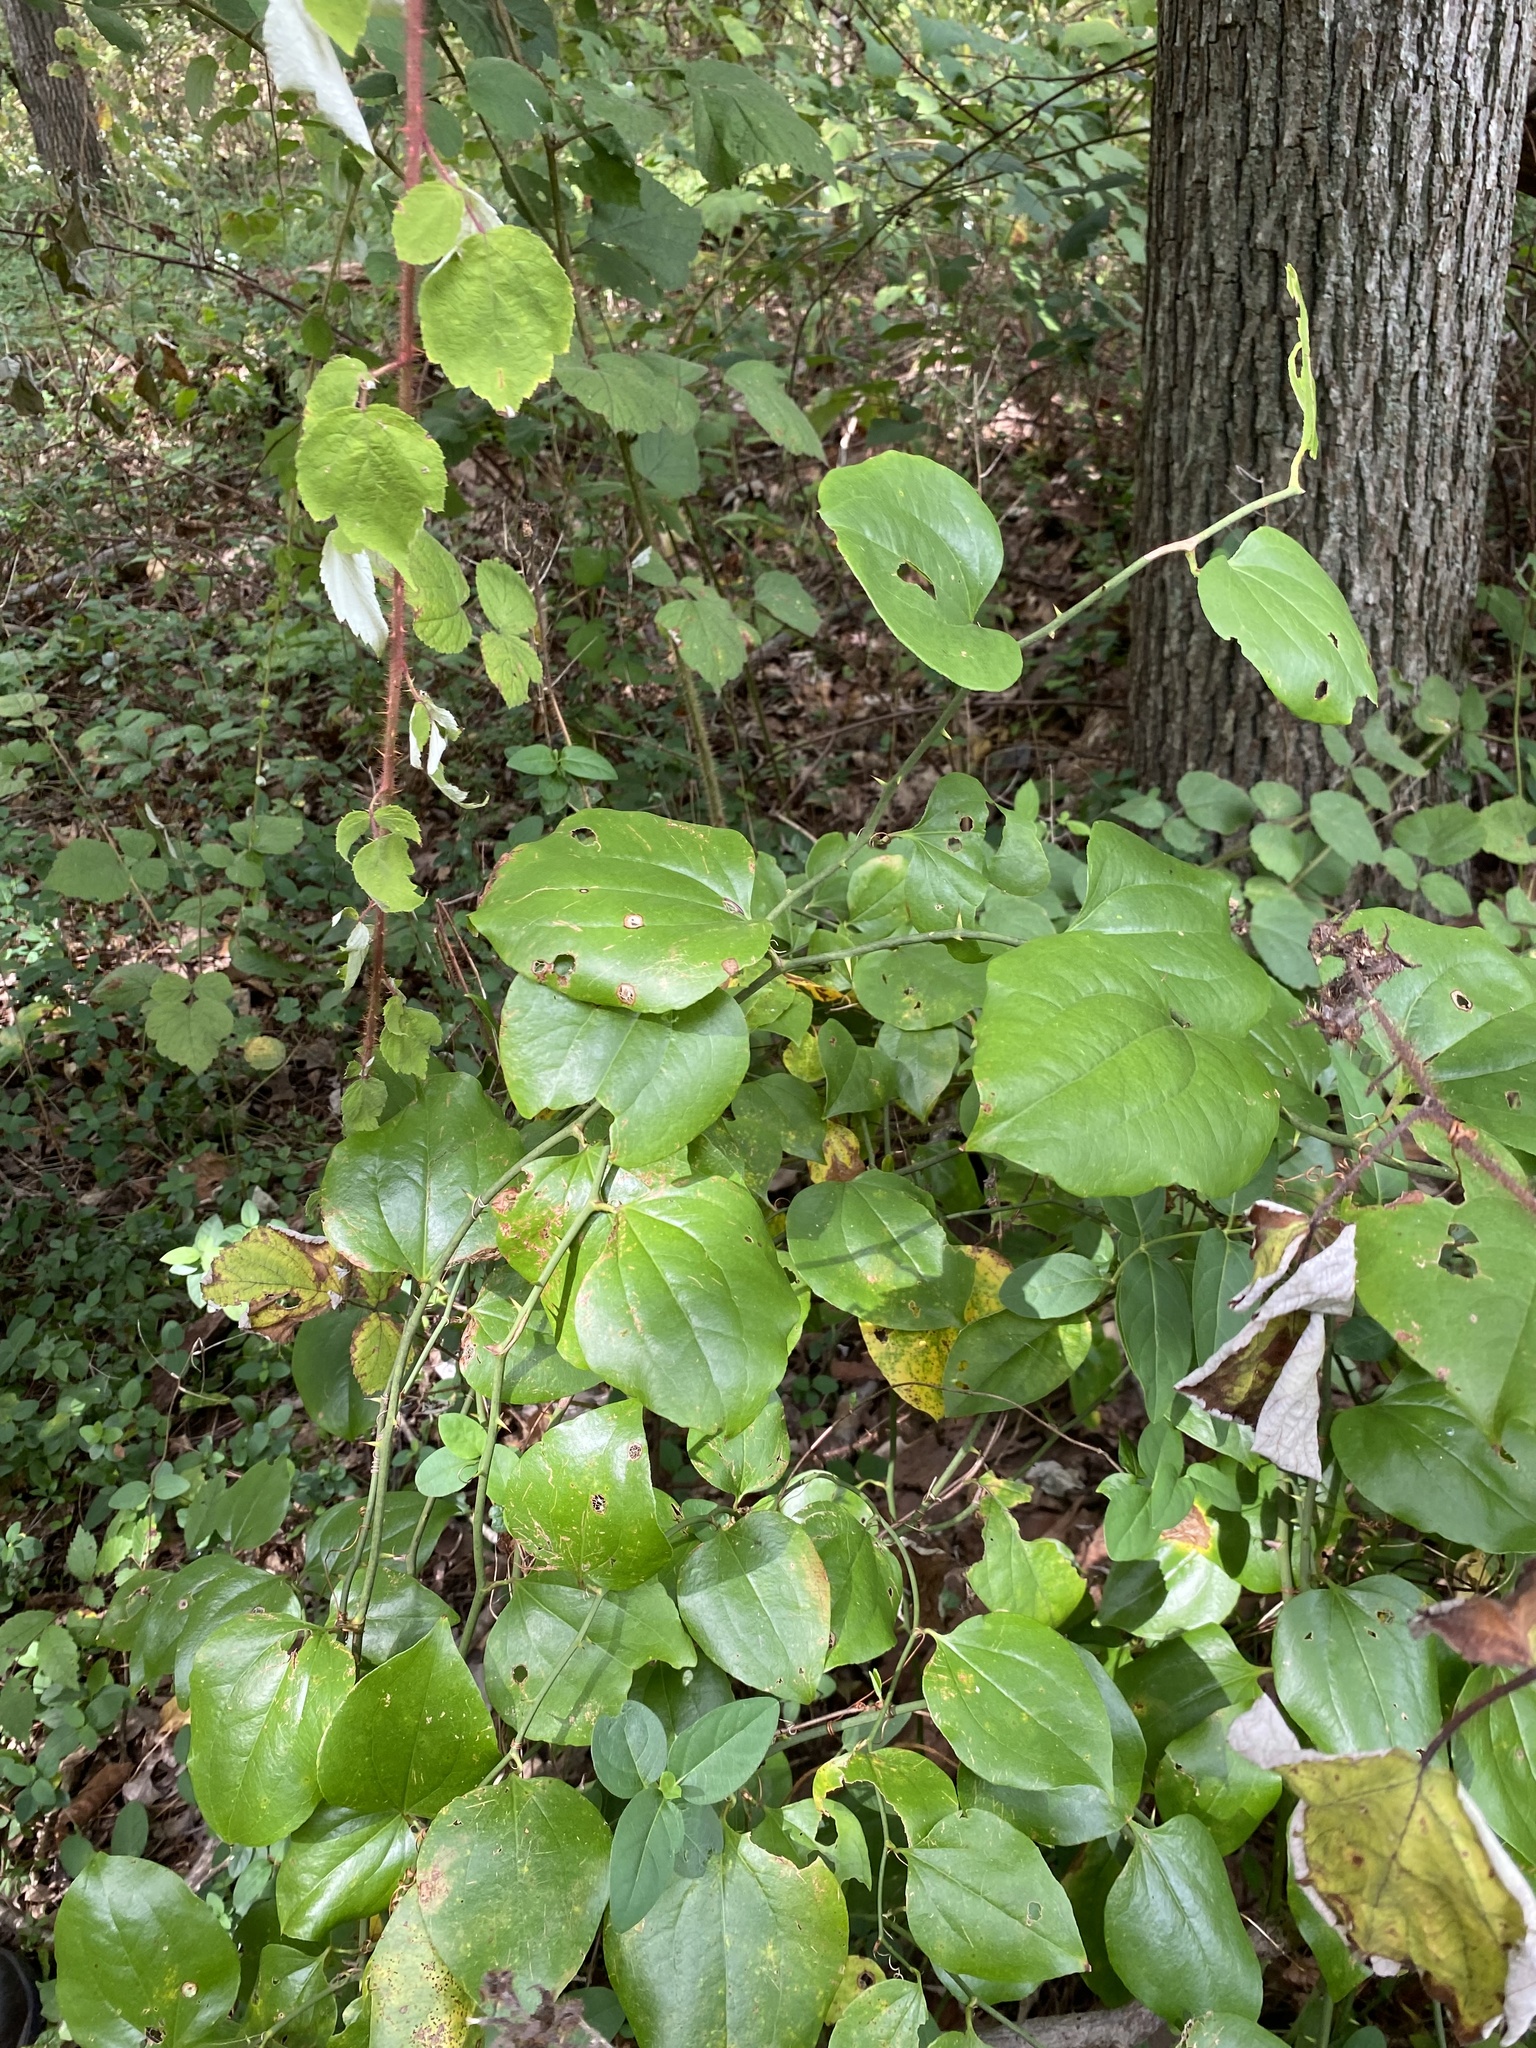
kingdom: Plantae
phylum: Tracheophyta
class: Liliopsida
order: Liliales
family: Smilacaceae
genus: Smilax
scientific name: Smilax rotundifolia
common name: Bullbriar
